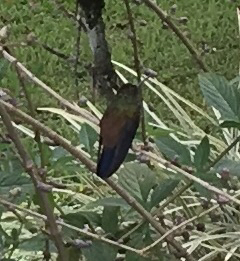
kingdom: Animalia
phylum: Chordata
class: Aves
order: Apodiformes
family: Trochilidae
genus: Saucerottia
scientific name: Saucerottia tobaci
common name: Copper-rumped hummingbird
